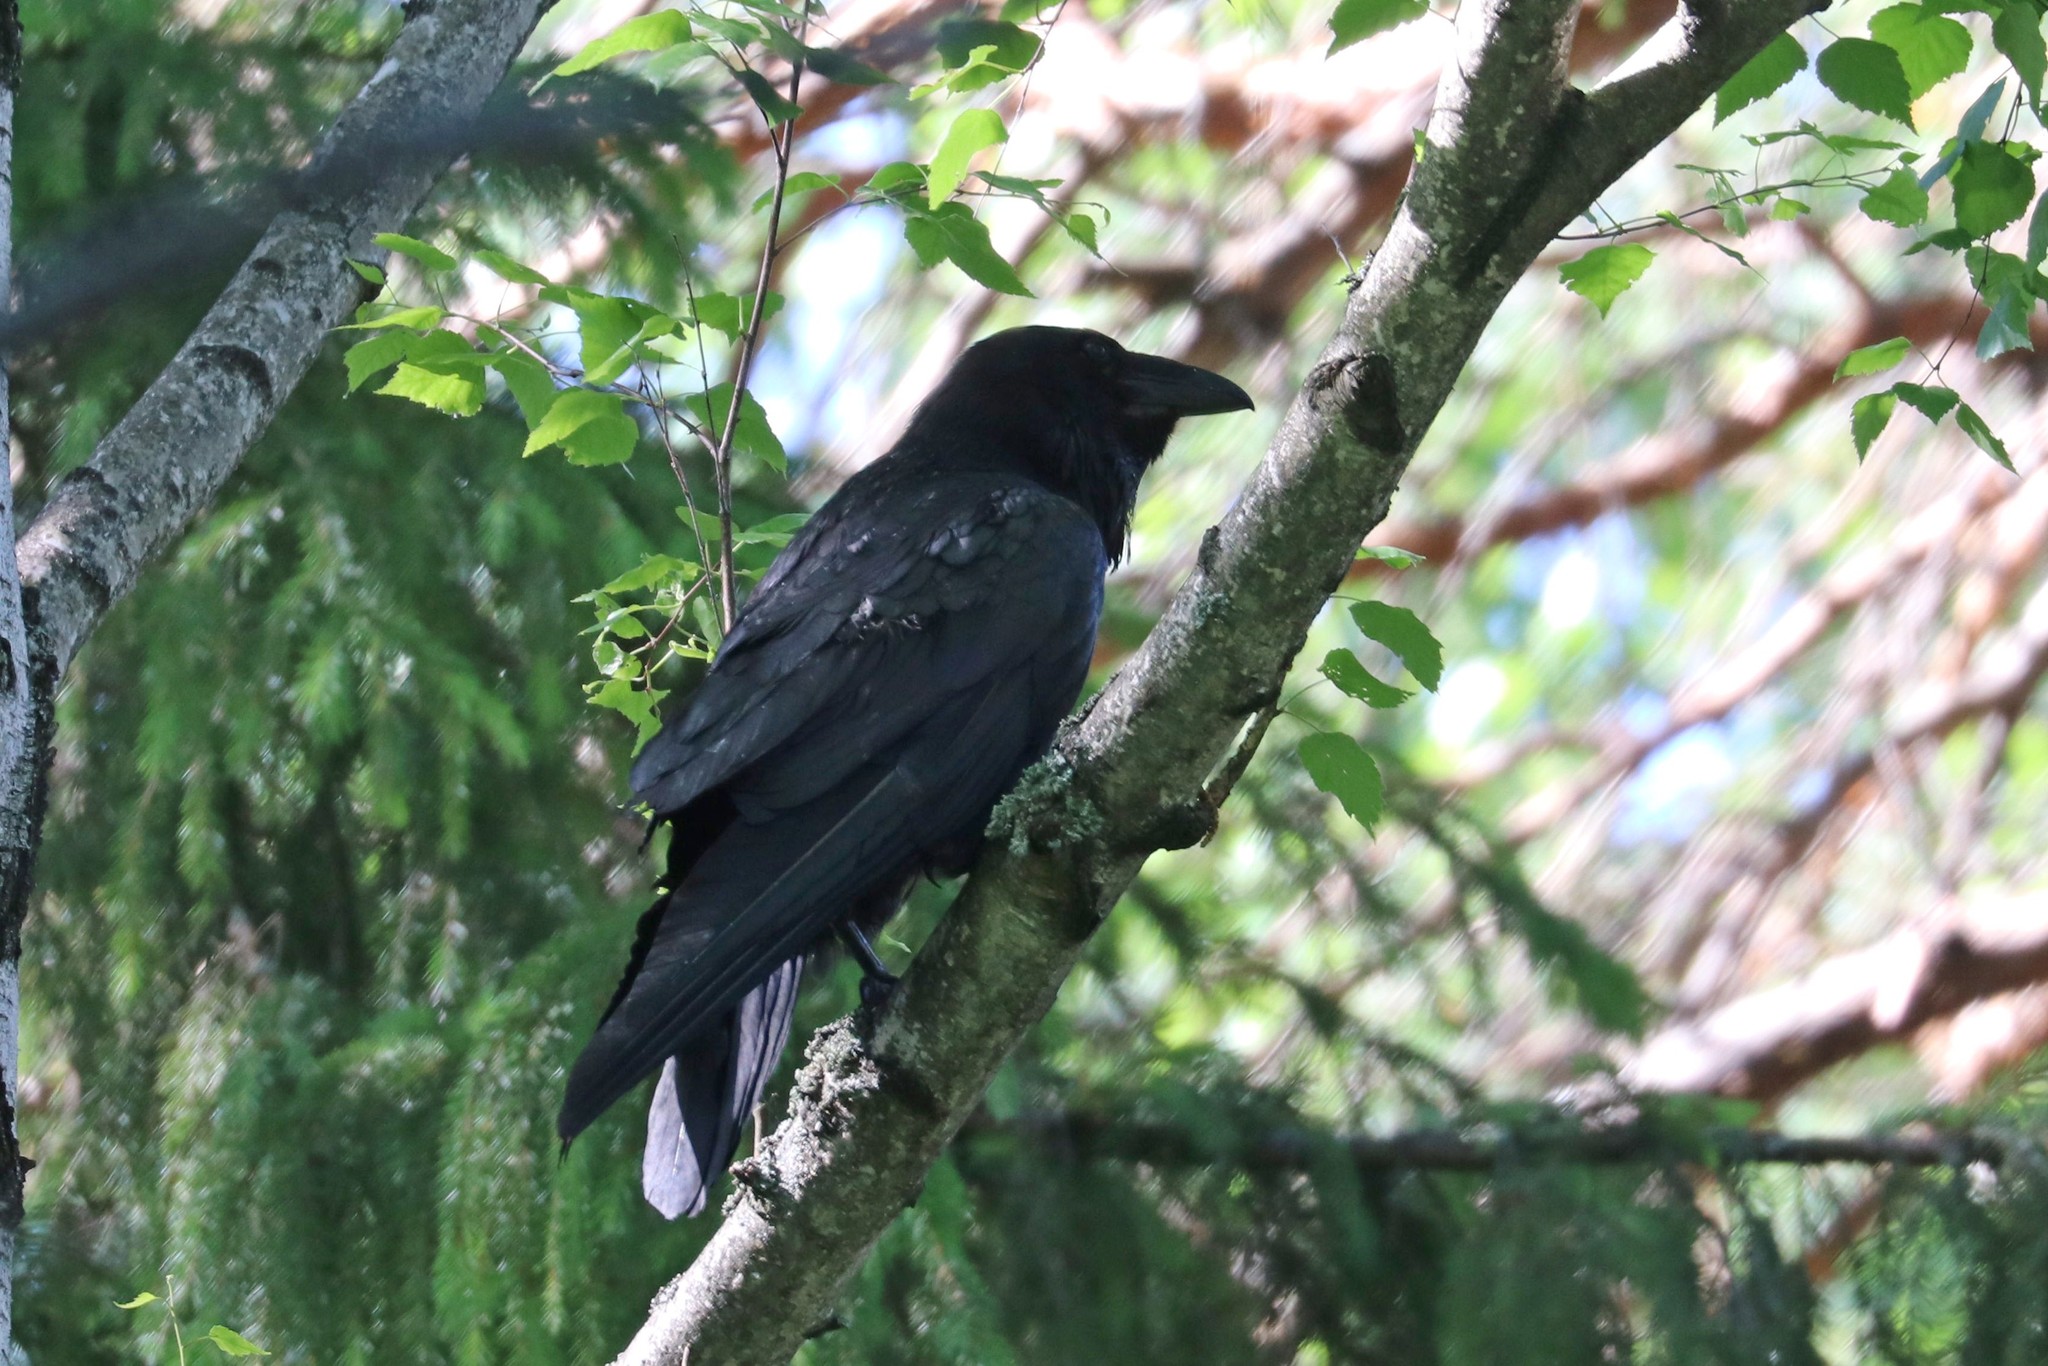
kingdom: Animalia
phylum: Chordata
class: Aves
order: Passeriformes
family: Corvidae
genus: Corvus
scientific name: Corvus corax
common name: Common raven
